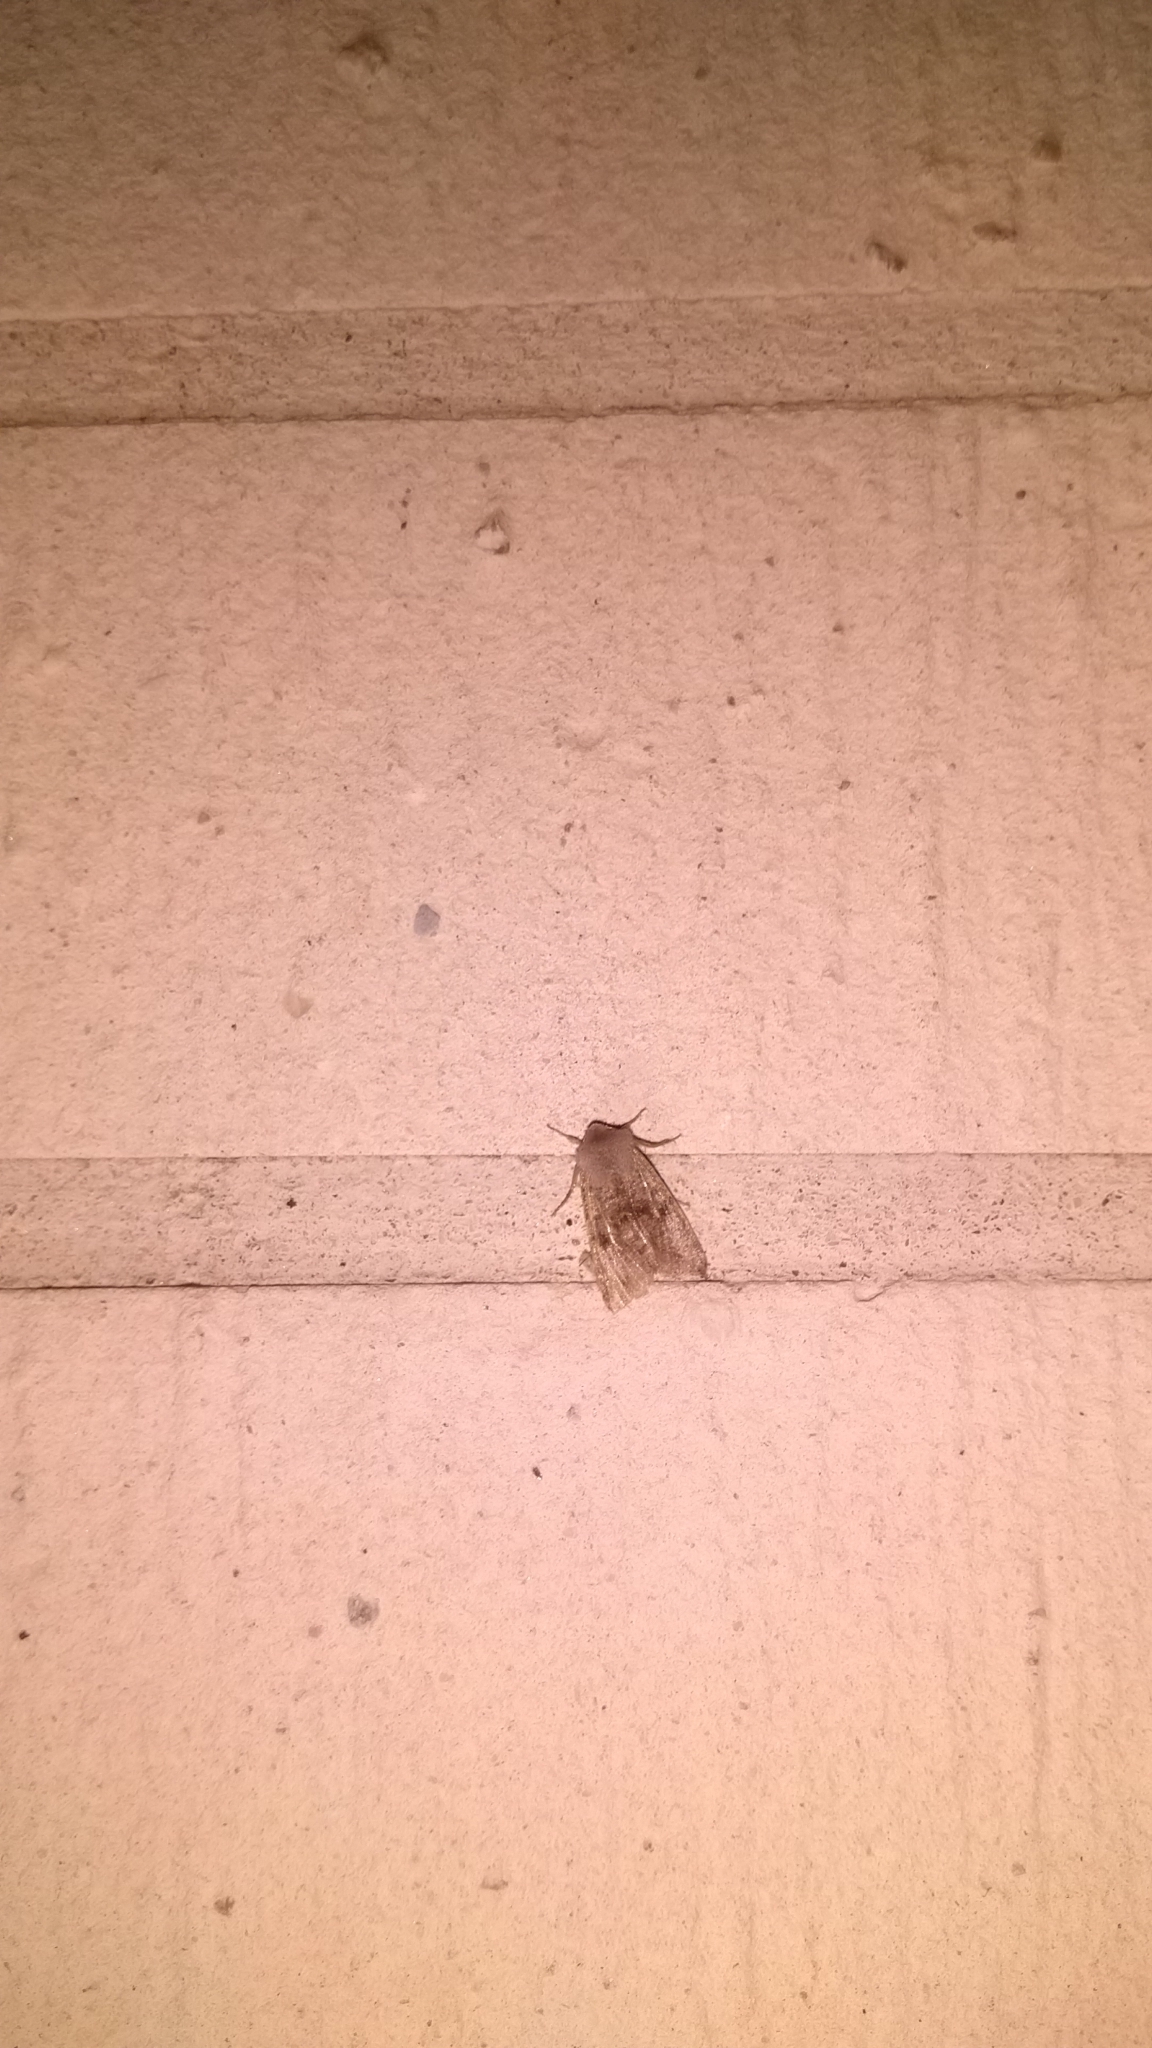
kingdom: Animalia
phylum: Arthropoda
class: Insecta
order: Lepidoptera
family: Noctuidae
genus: Orthosia
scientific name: Orthosia incerta
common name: Clouded drab
